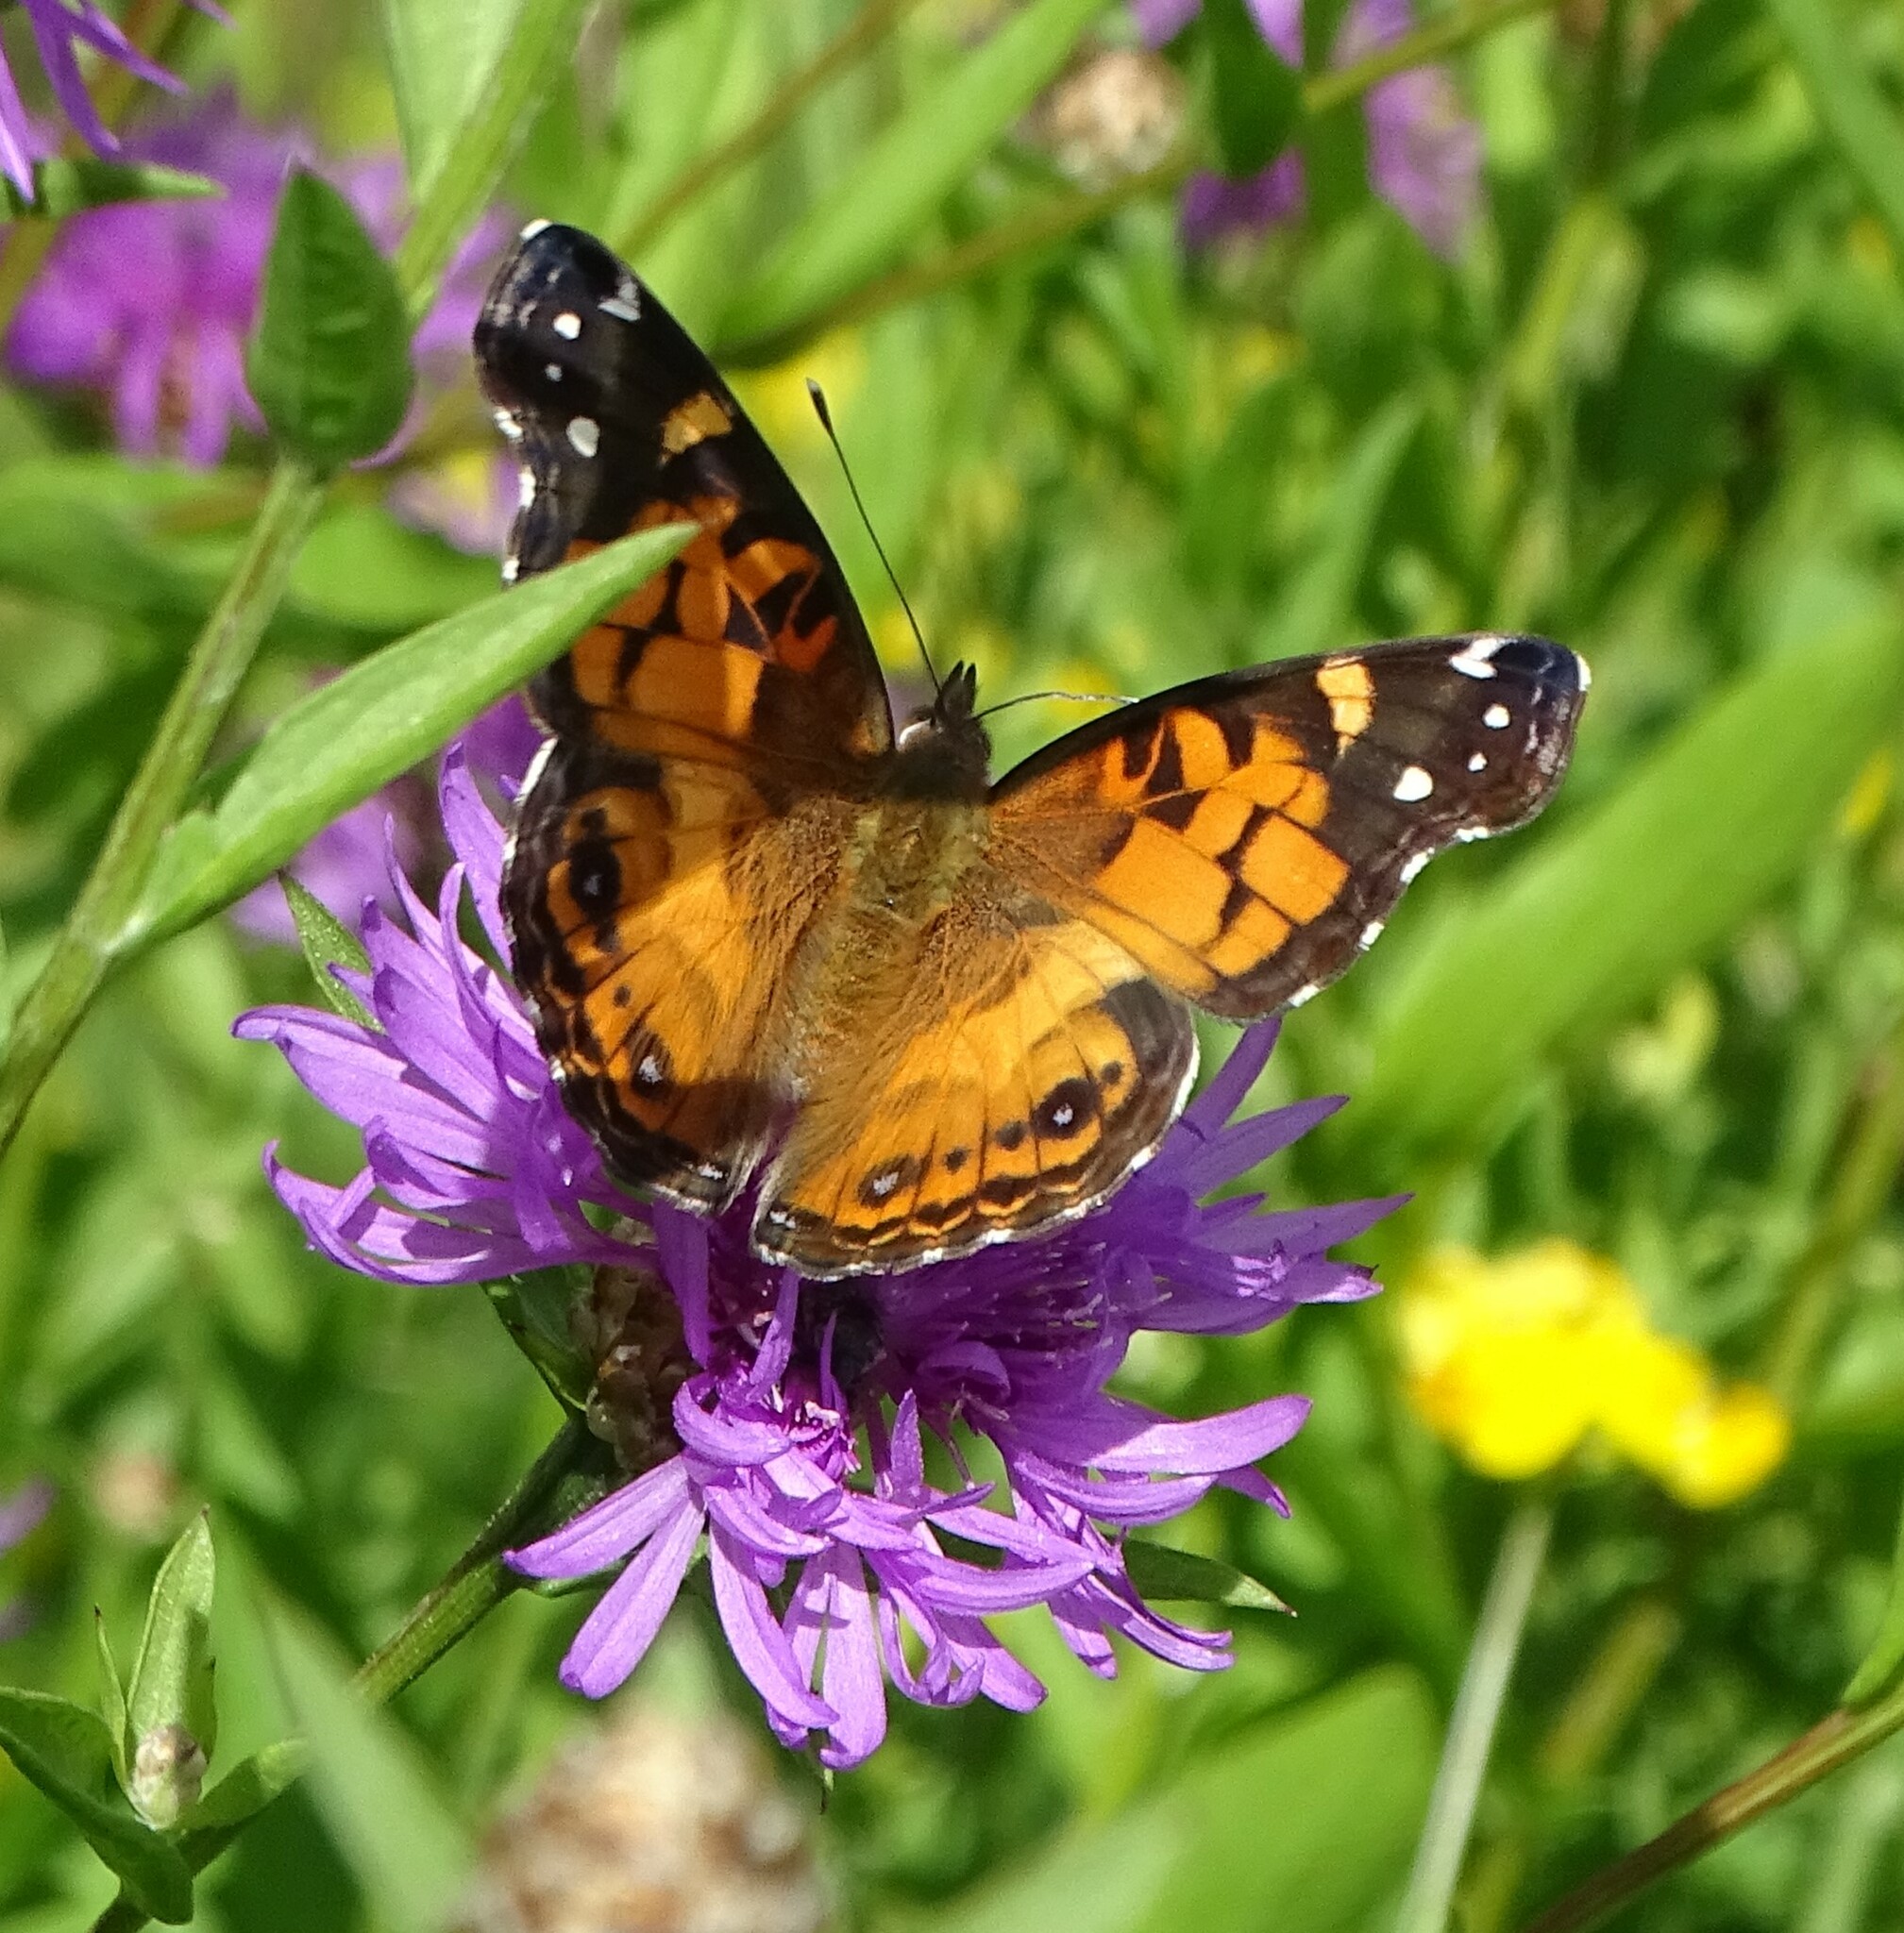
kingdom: Animalia
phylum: Arthropoda
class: Insecta
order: Lepidoptera
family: Nymphalidae
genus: Vanessa
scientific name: Vanessa virginiensis
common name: American lady
